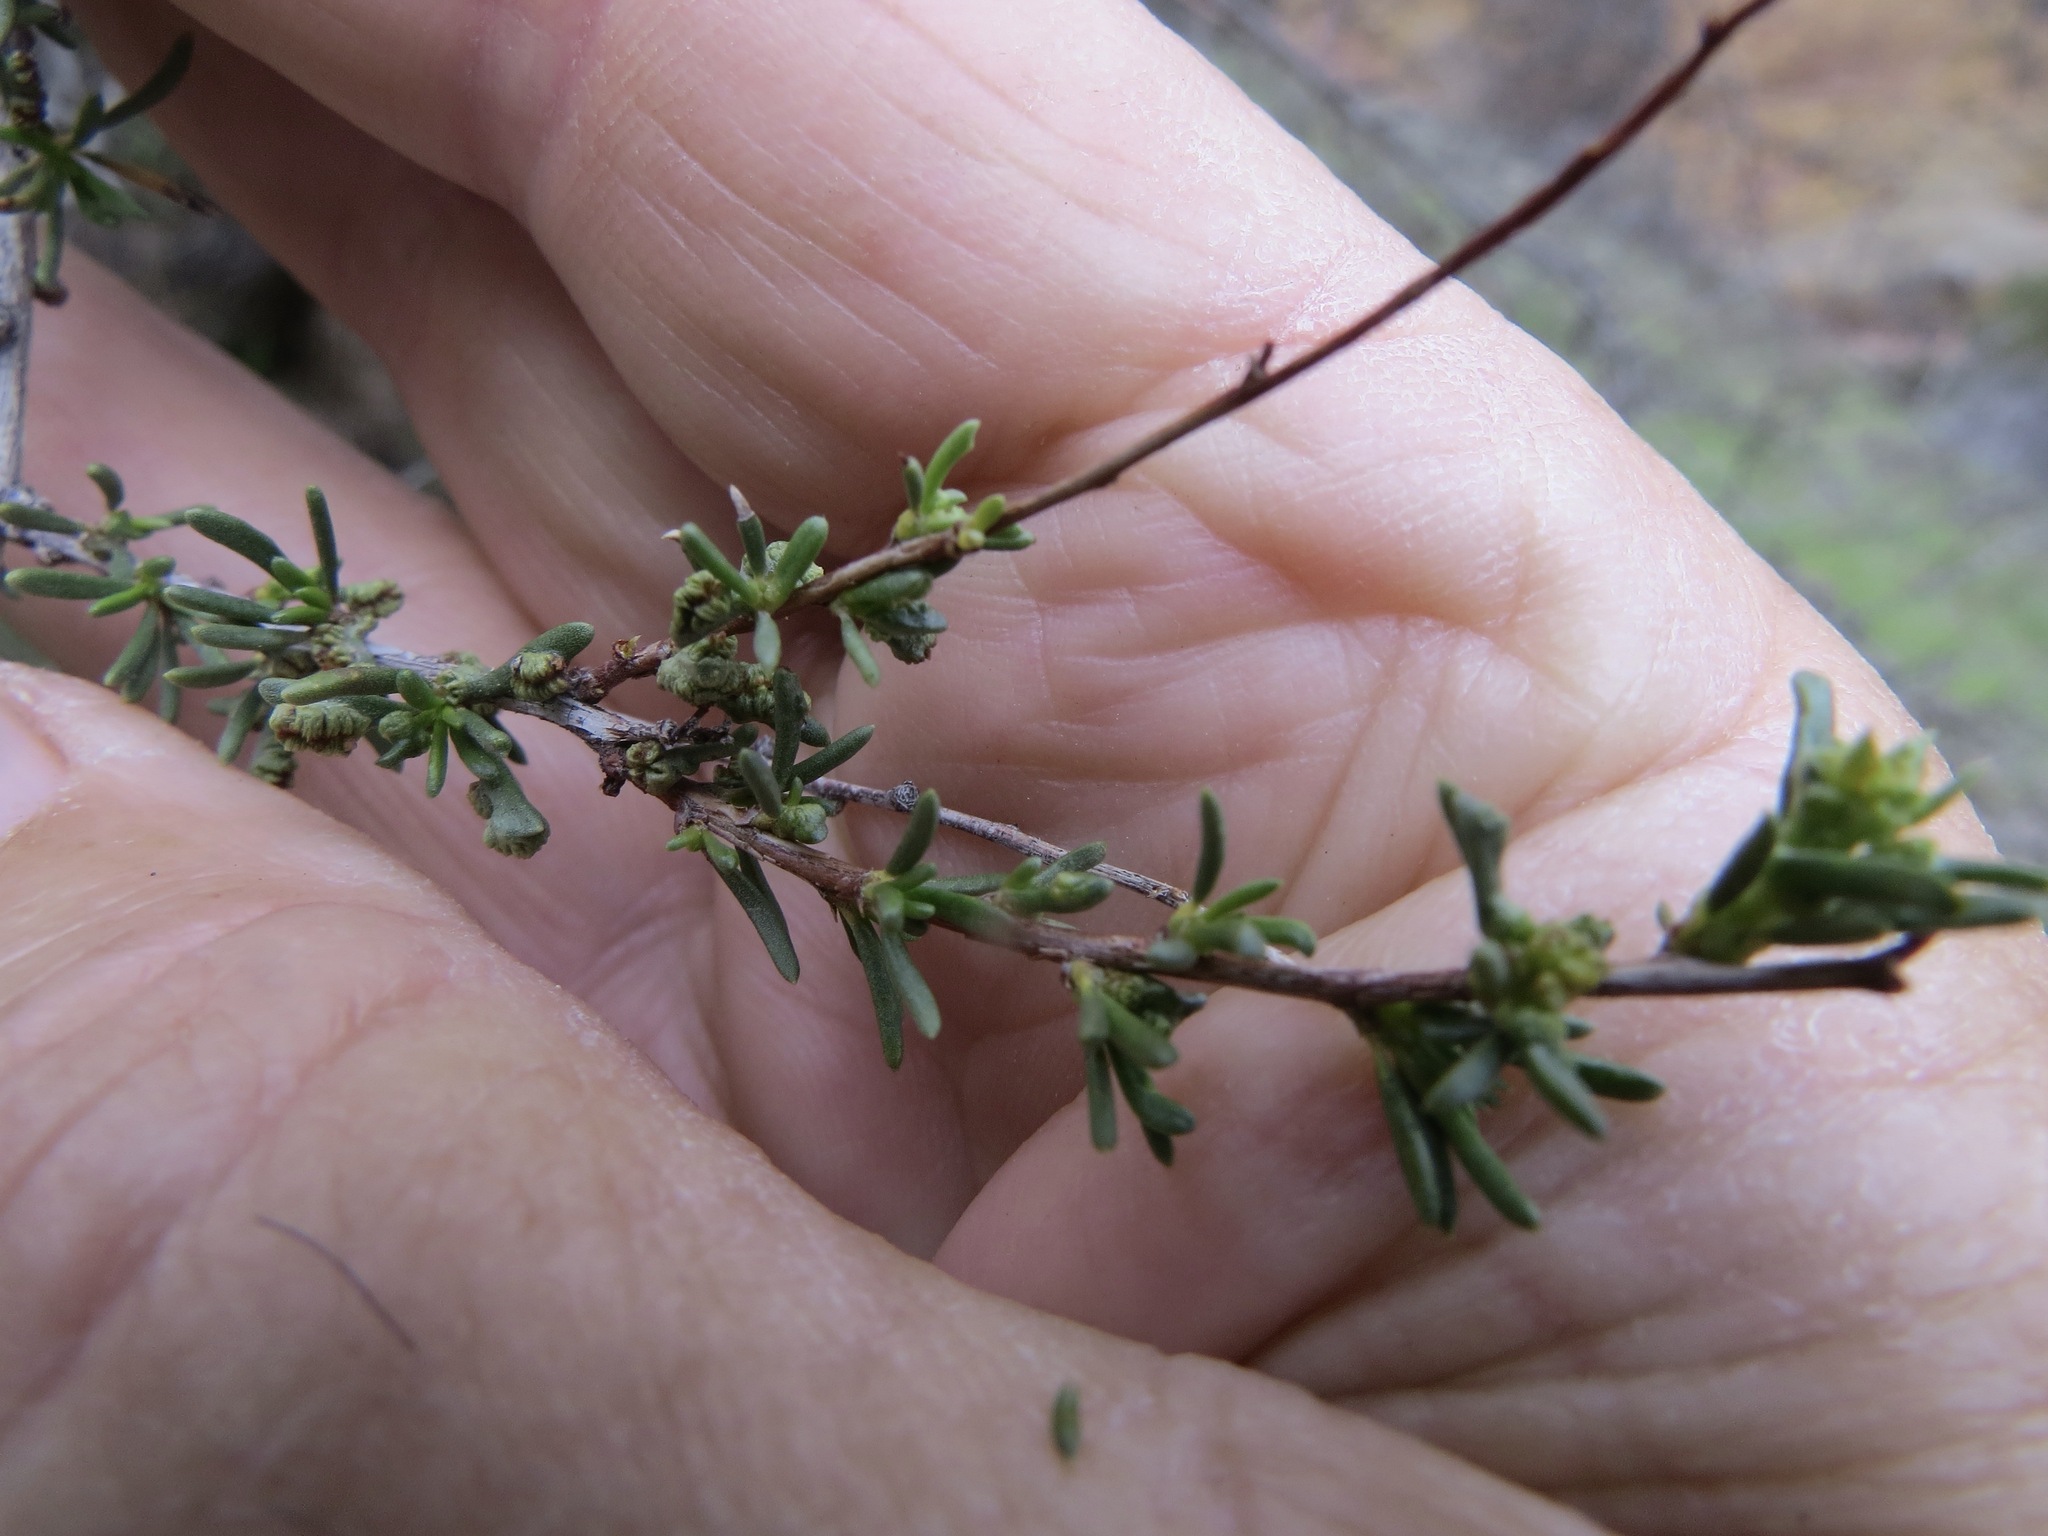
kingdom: Animalia
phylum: Arthropoda
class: Arachnida
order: Trombidiformes
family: Eriophyidae
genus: Eriophyes
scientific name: Eriophyes
